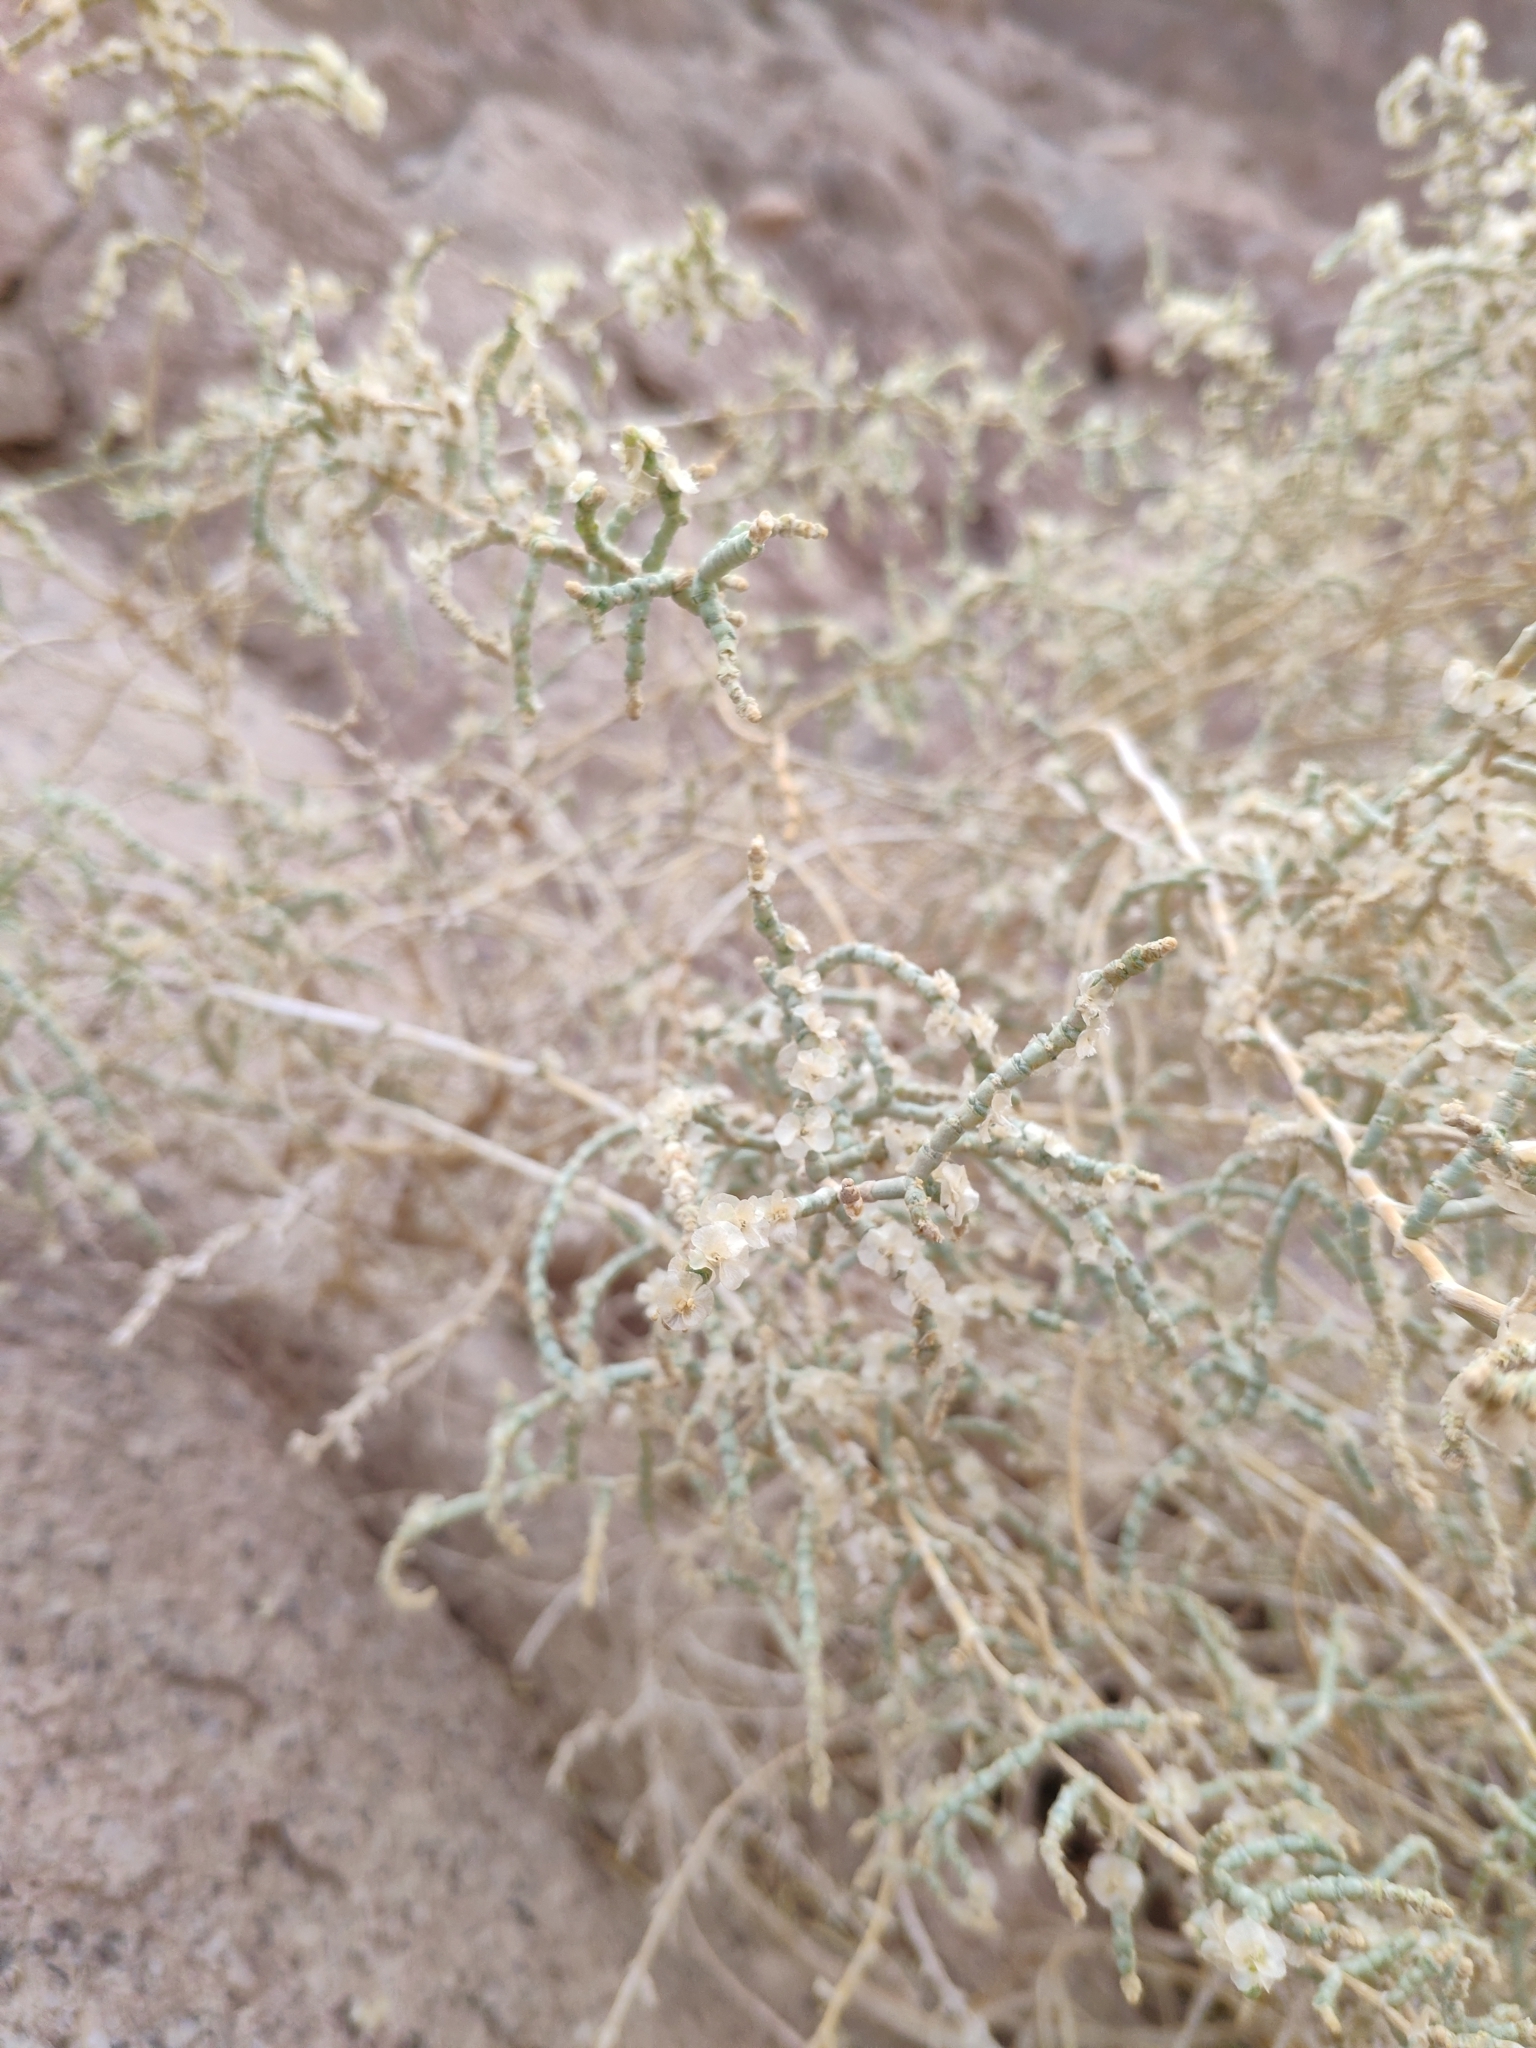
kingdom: Plantae
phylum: Tracheophyta
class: Magnoliopsida
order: Caryophyllales
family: Amaranthaceae
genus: Haloxylon
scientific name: Haloxylon salicornicum
